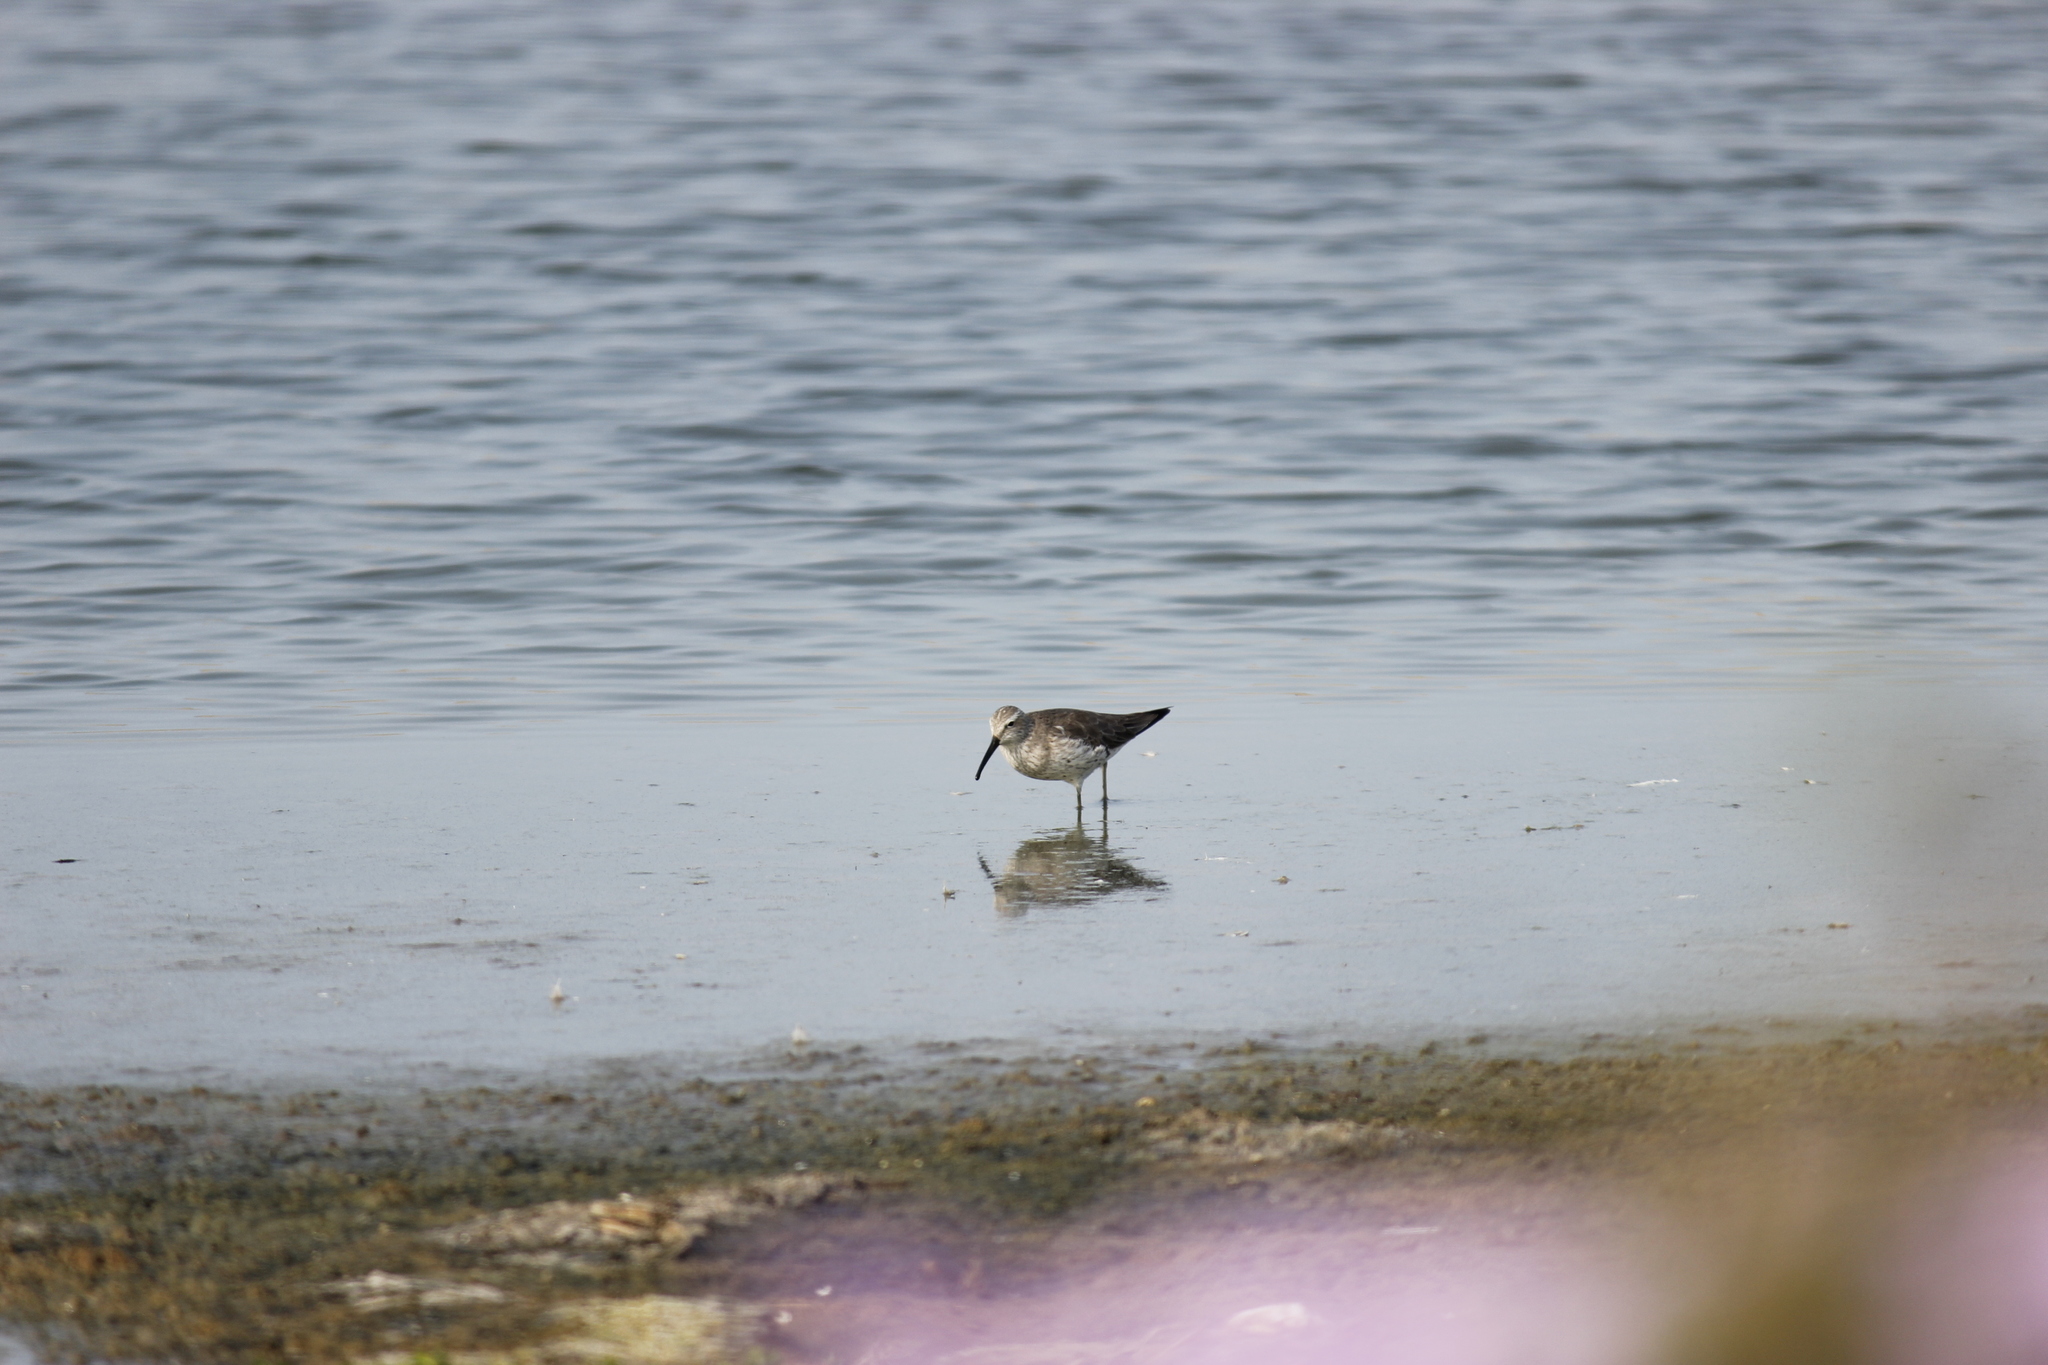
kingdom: Animalia
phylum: Chordata
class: Aves
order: Charadriiformes
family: Scolopacidae
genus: Calidris
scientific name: Calidris himantopus
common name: Stilt sandpiper
